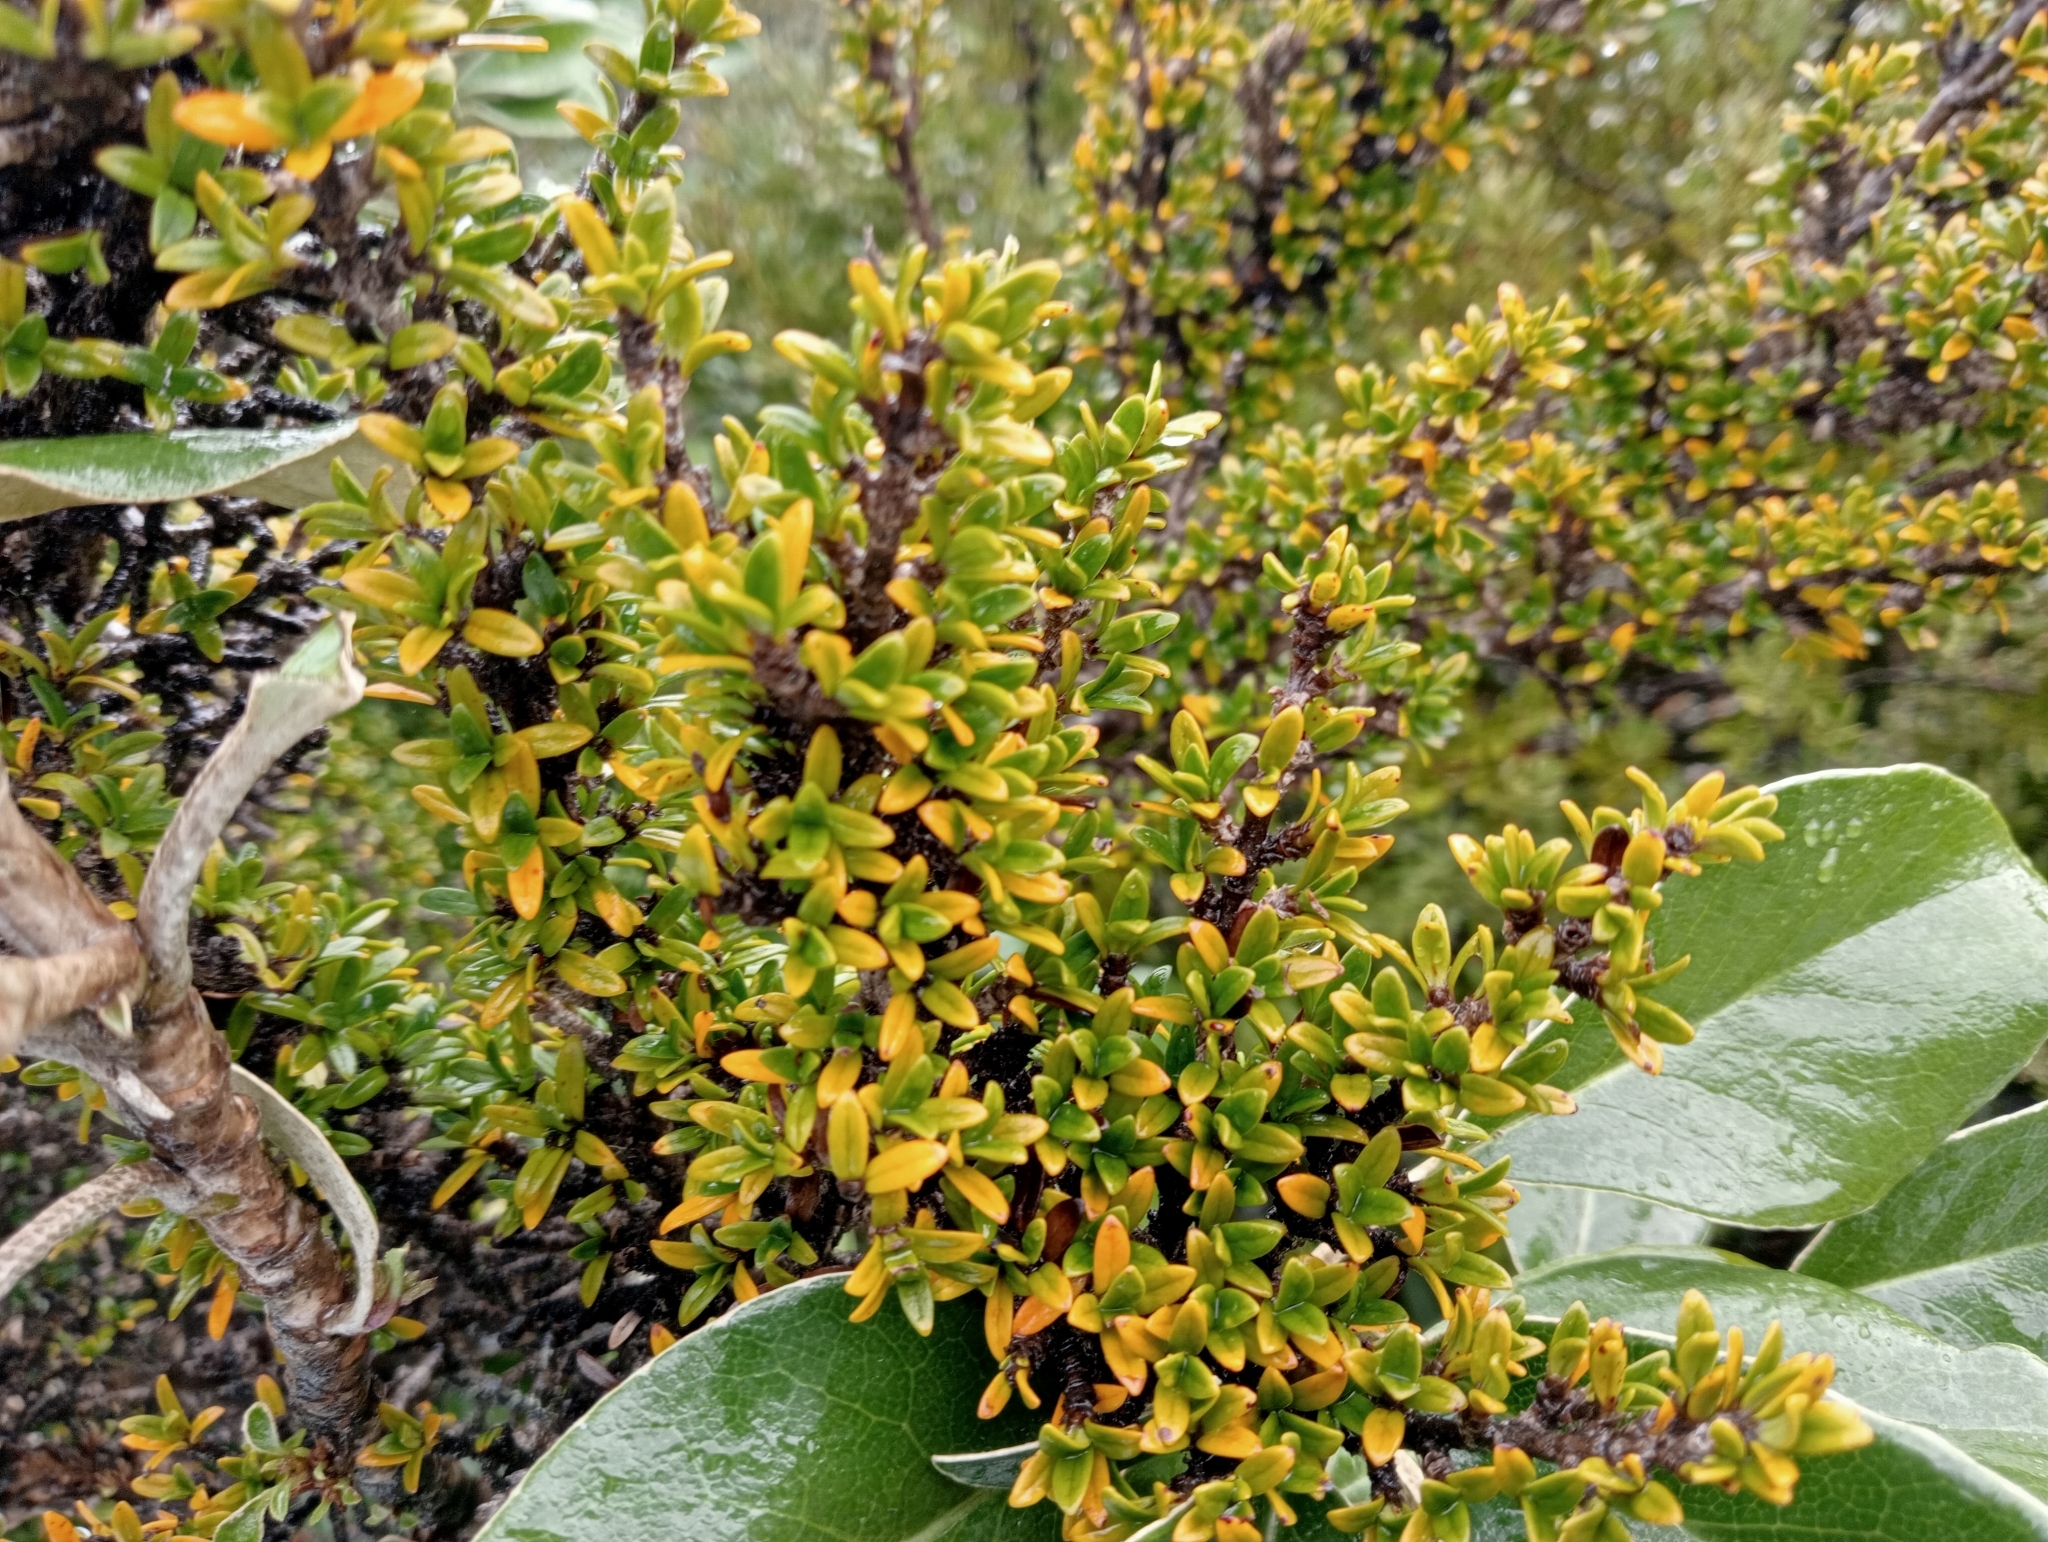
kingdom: Plantae
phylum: Tracheophyta
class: Magnoliopsida
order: Gentianales
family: Rubiaceae
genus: Coprosma
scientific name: Coprosma pseudocuneata
